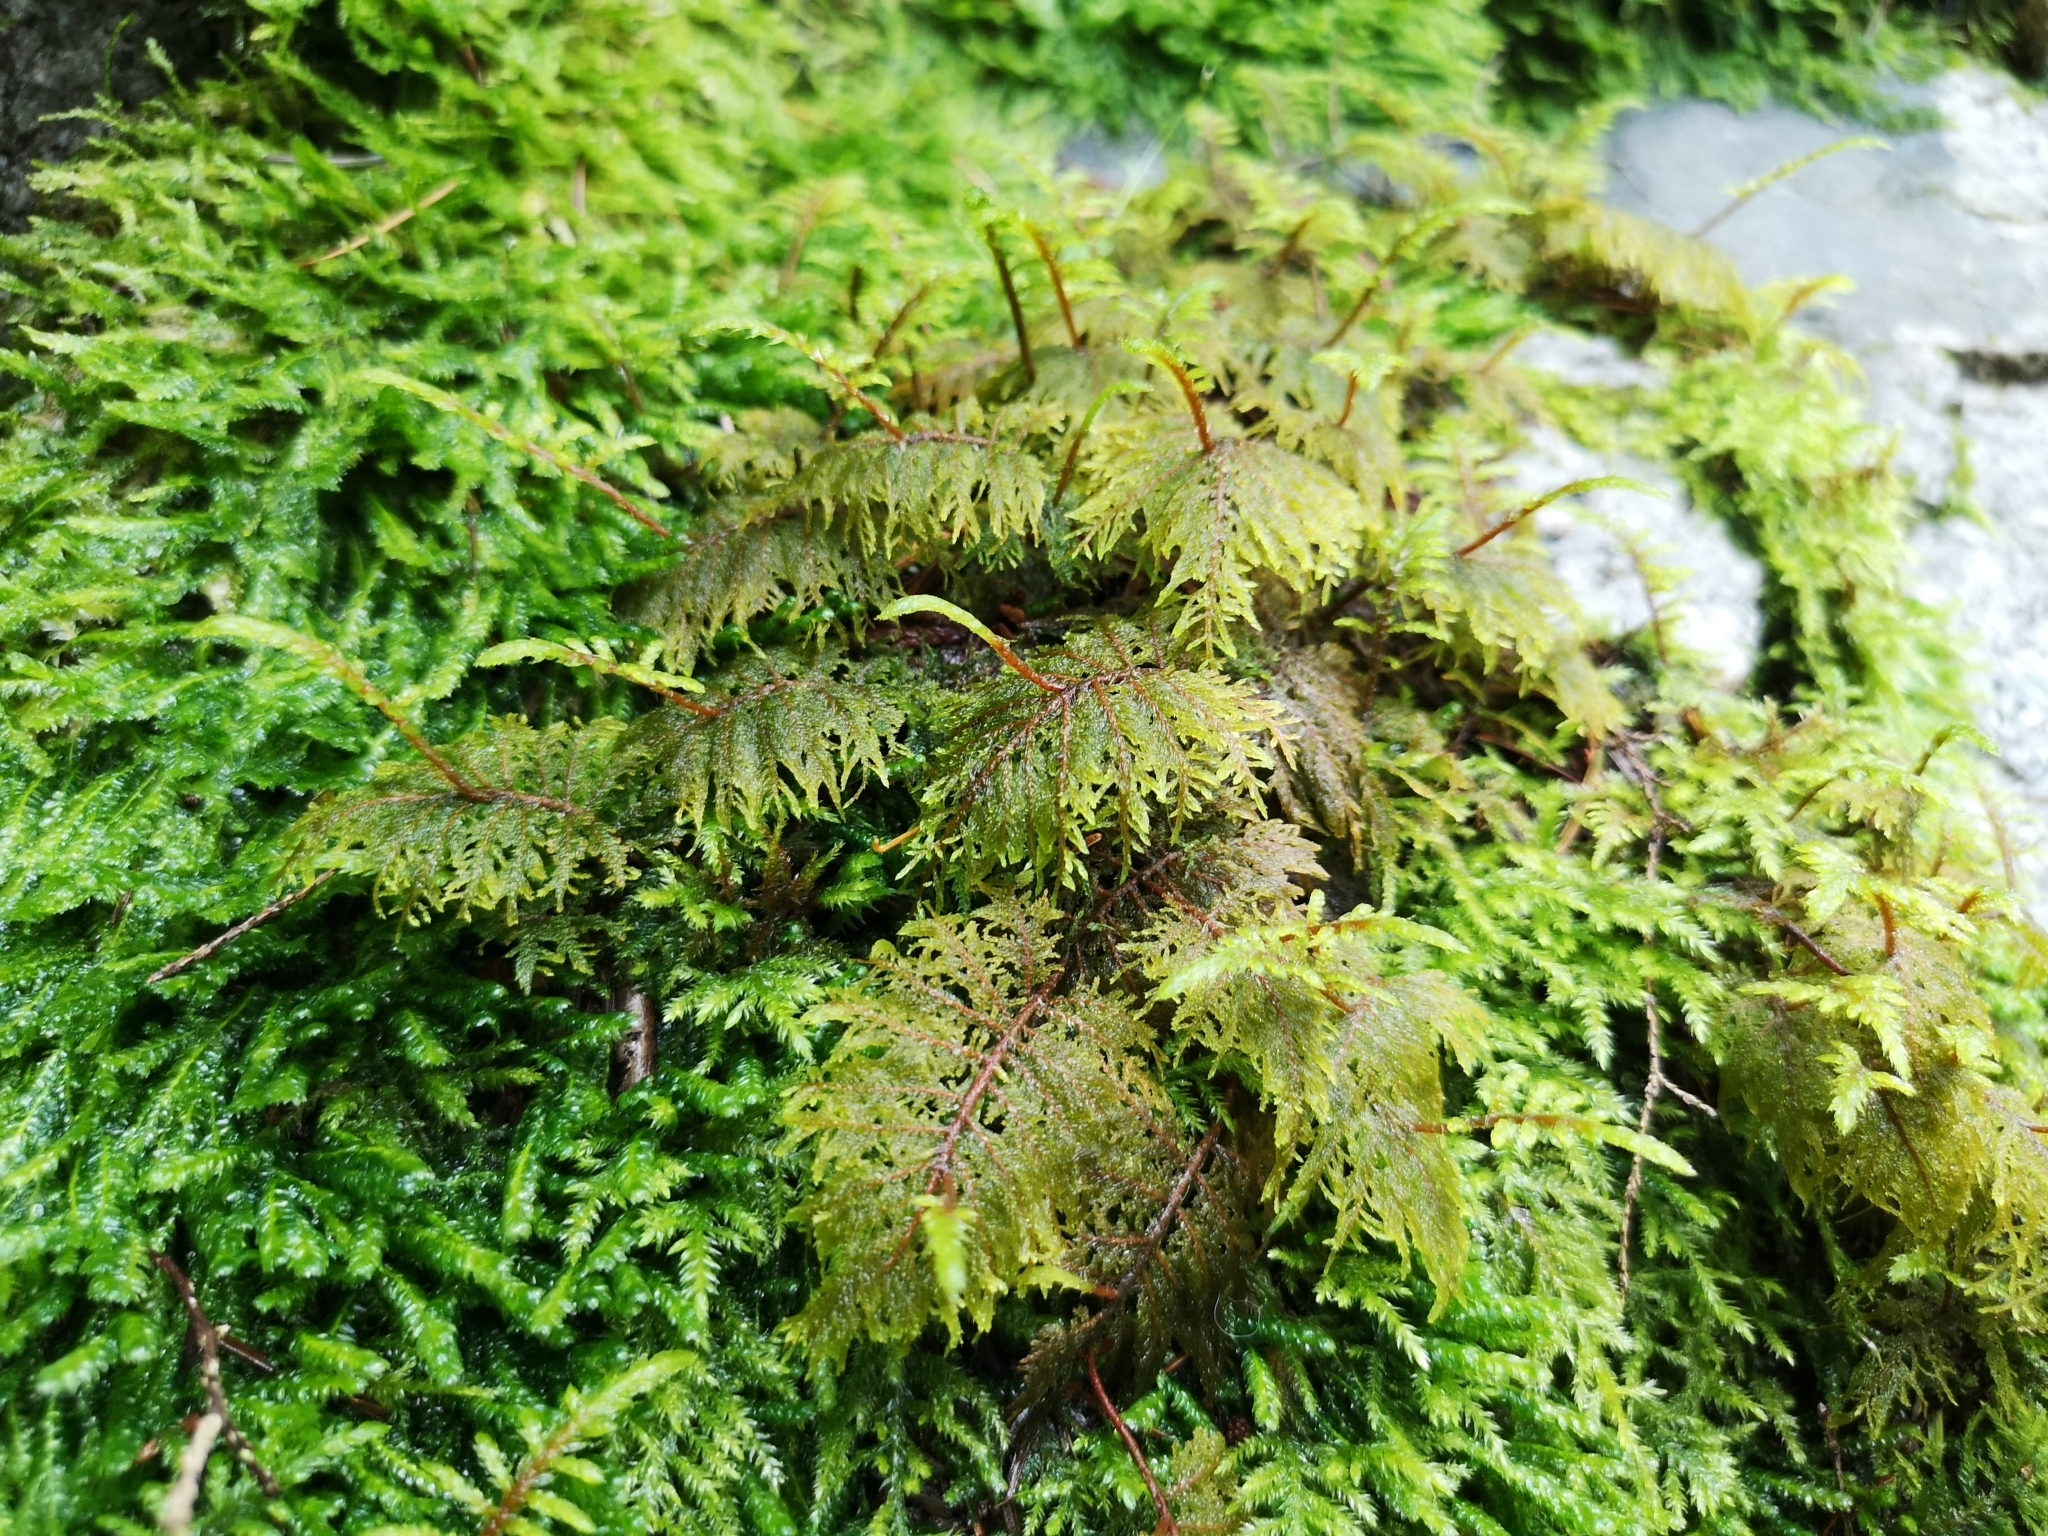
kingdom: Plantae
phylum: Bryophyta
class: Bryopsida
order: Hypnales
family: Hylocomiaceae
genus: Hylocomium
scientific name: Hylocomium splendens
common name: Stairstep moss
